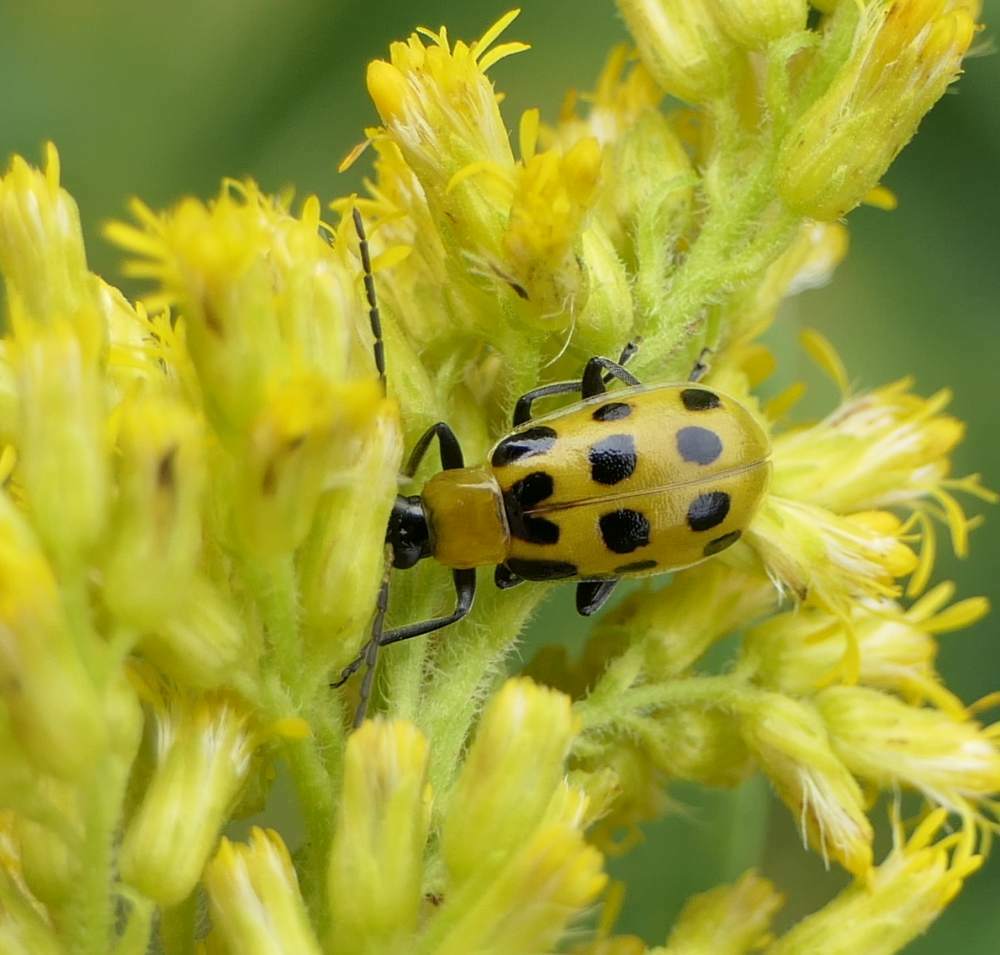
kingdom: Animalia
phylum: Arthropoda
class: Insecta
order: Coleoptera
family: Chrysomelidae
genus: Diabrotica
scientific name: Diabrotica undecimpunctata
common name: Spotted cucumber beetle
